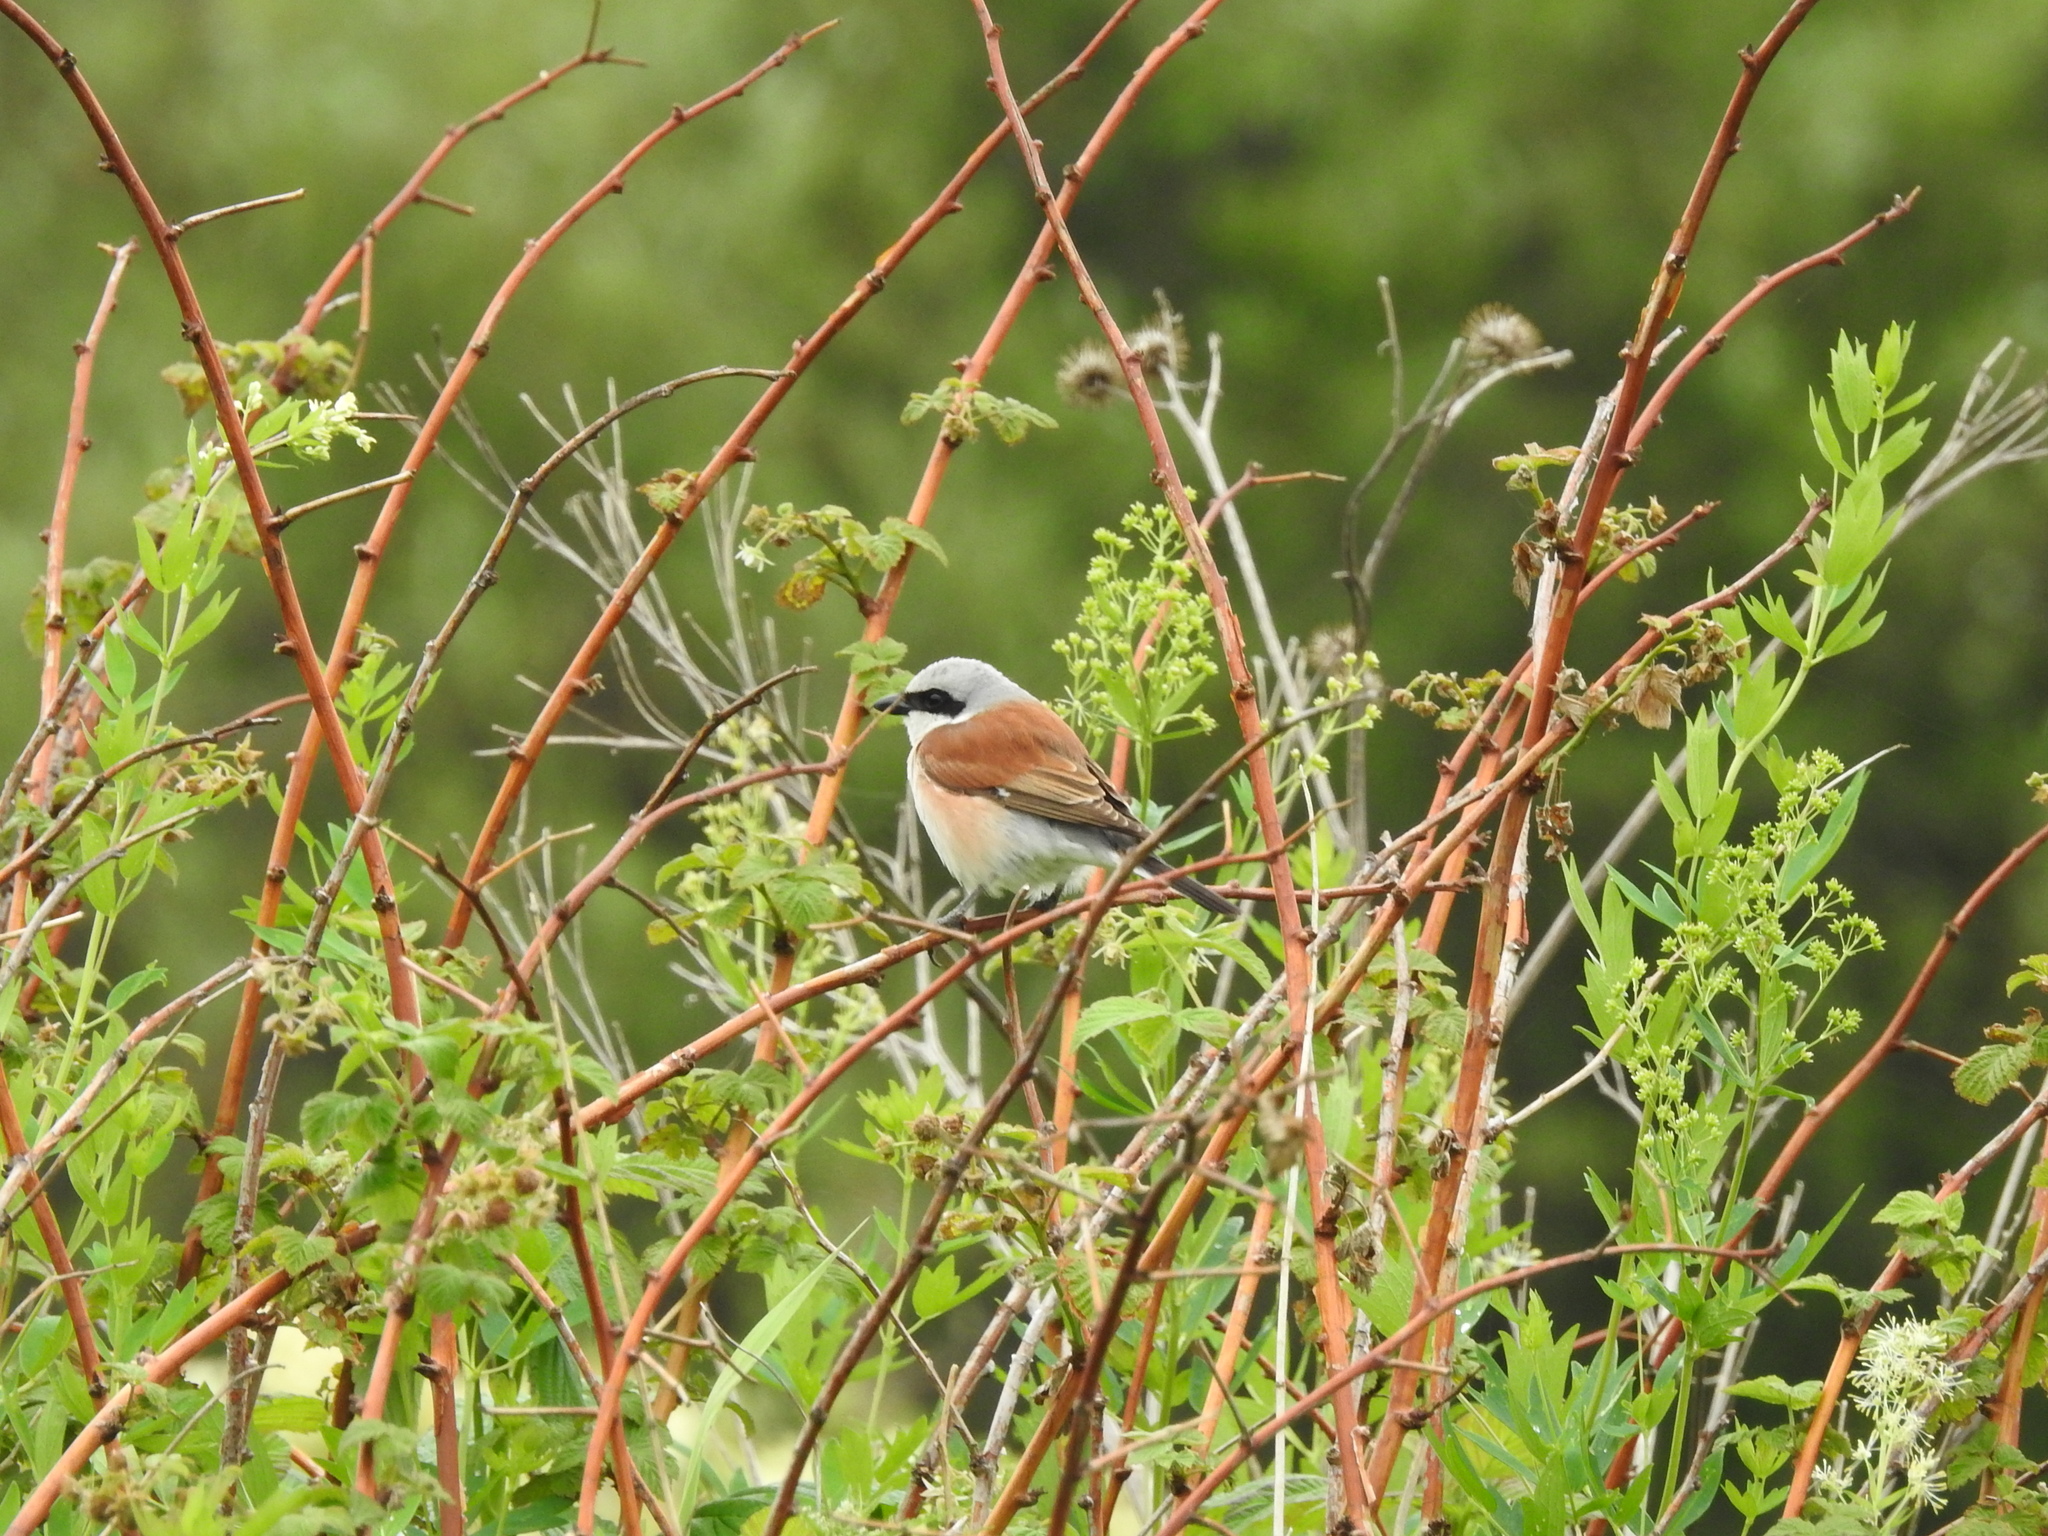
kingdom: Animalia
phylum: Chordata
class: Aves
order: Passeriformes
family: Laniidae
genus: Lanius
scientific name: Lanius collurio
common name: Red-backed shrike
